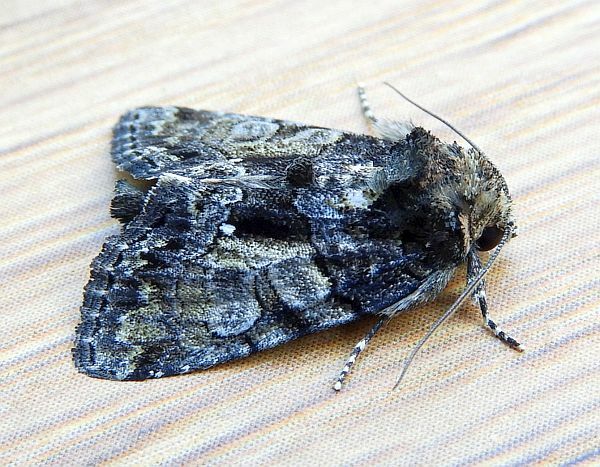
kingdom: Animalia
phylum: Arthropoda
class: Insecta
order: Lepidoptera
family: Noctuidae
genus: Chytonix
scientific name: Chytonix palliatricula
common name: Cloaked marvel
